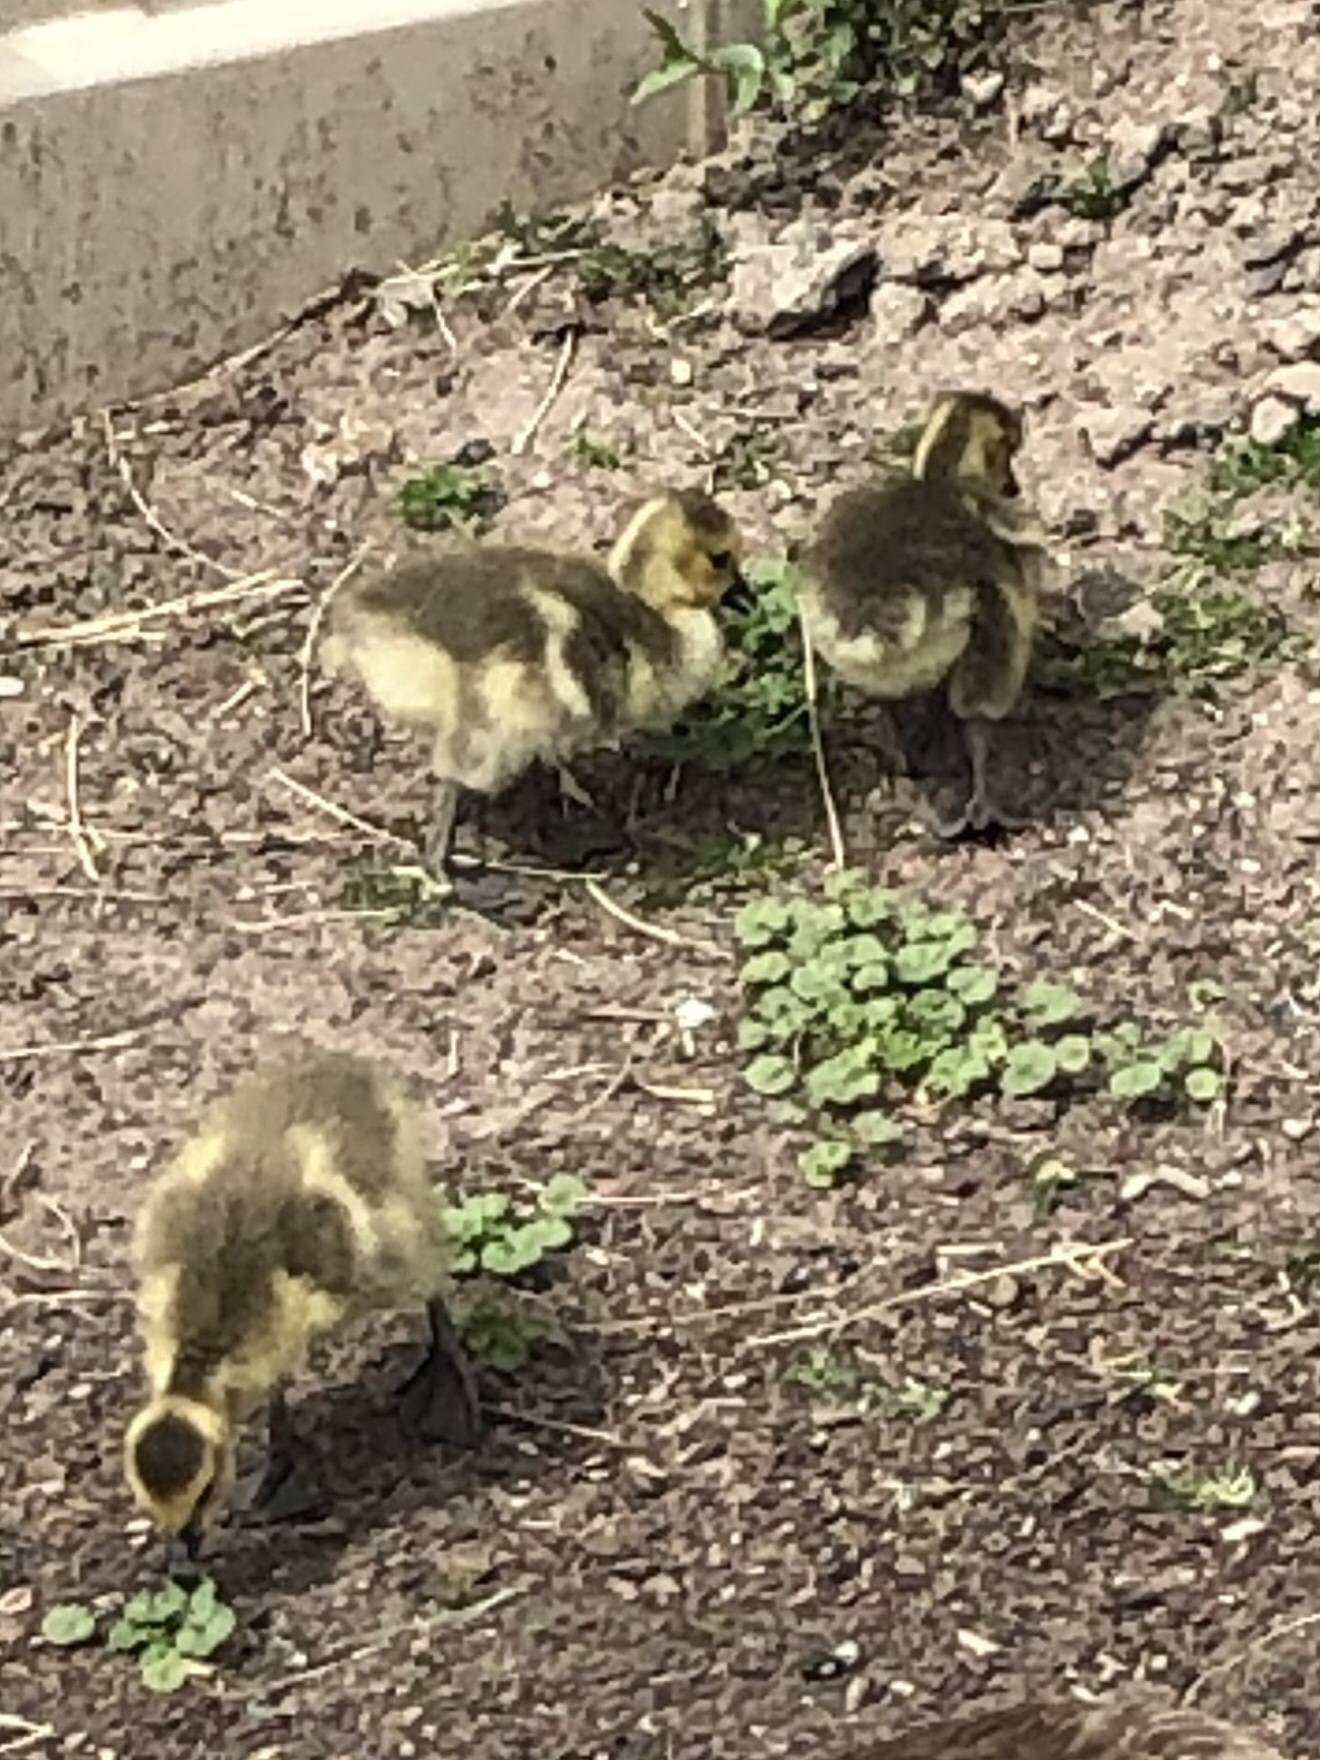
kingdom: Animalia
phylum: Chordata
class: Aves
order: Anseriformes
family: Anatidae
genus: Branta
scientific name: Branta canadensis
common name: Canada goose
